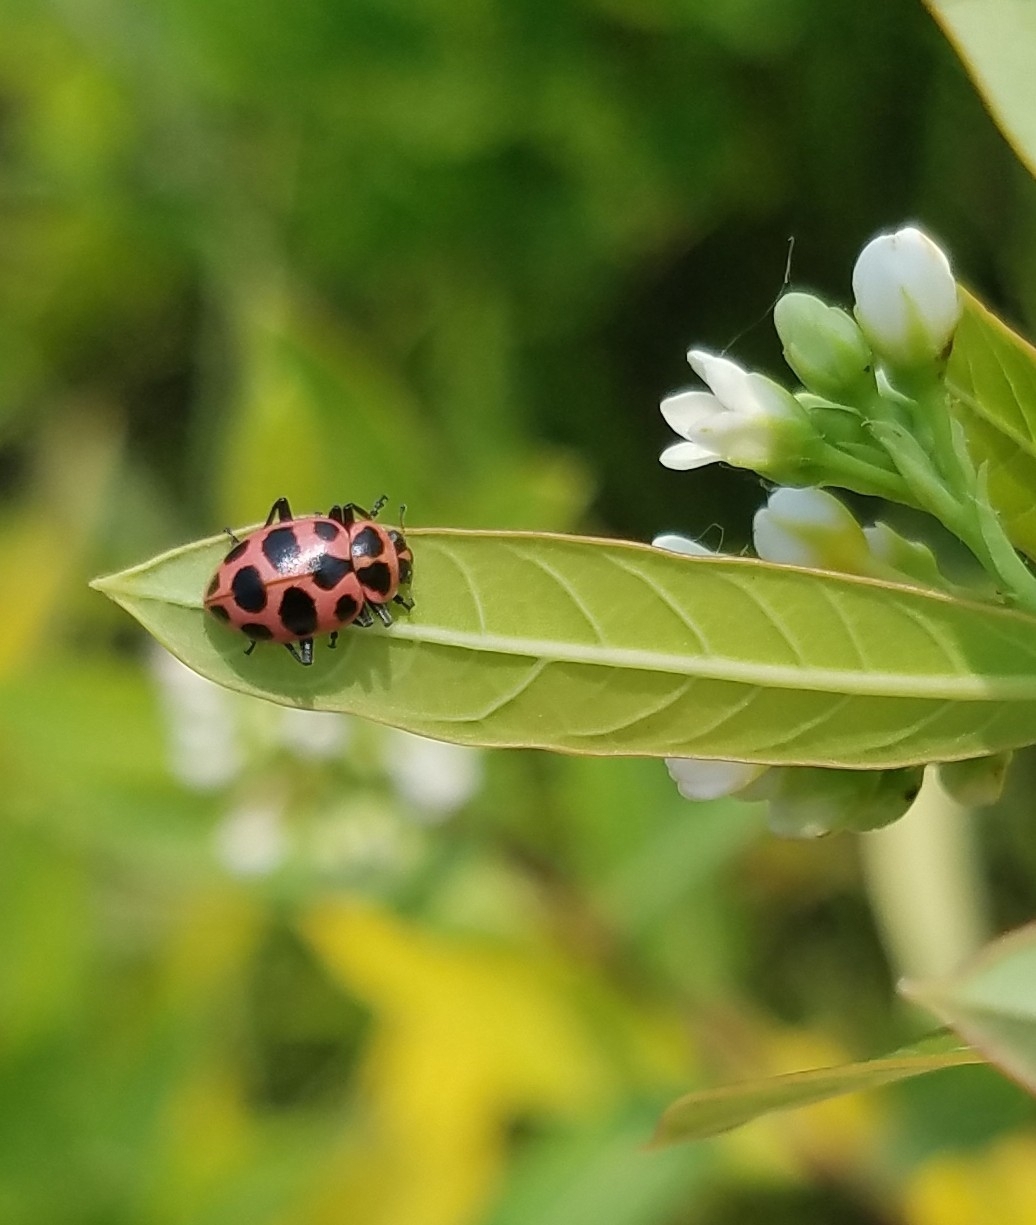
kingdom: Animalia
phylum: Arthropoda
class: Insecta
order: Coleoptera
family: Coccinellidae
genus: Coleomegilla
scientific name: Coleomegilla maculata
